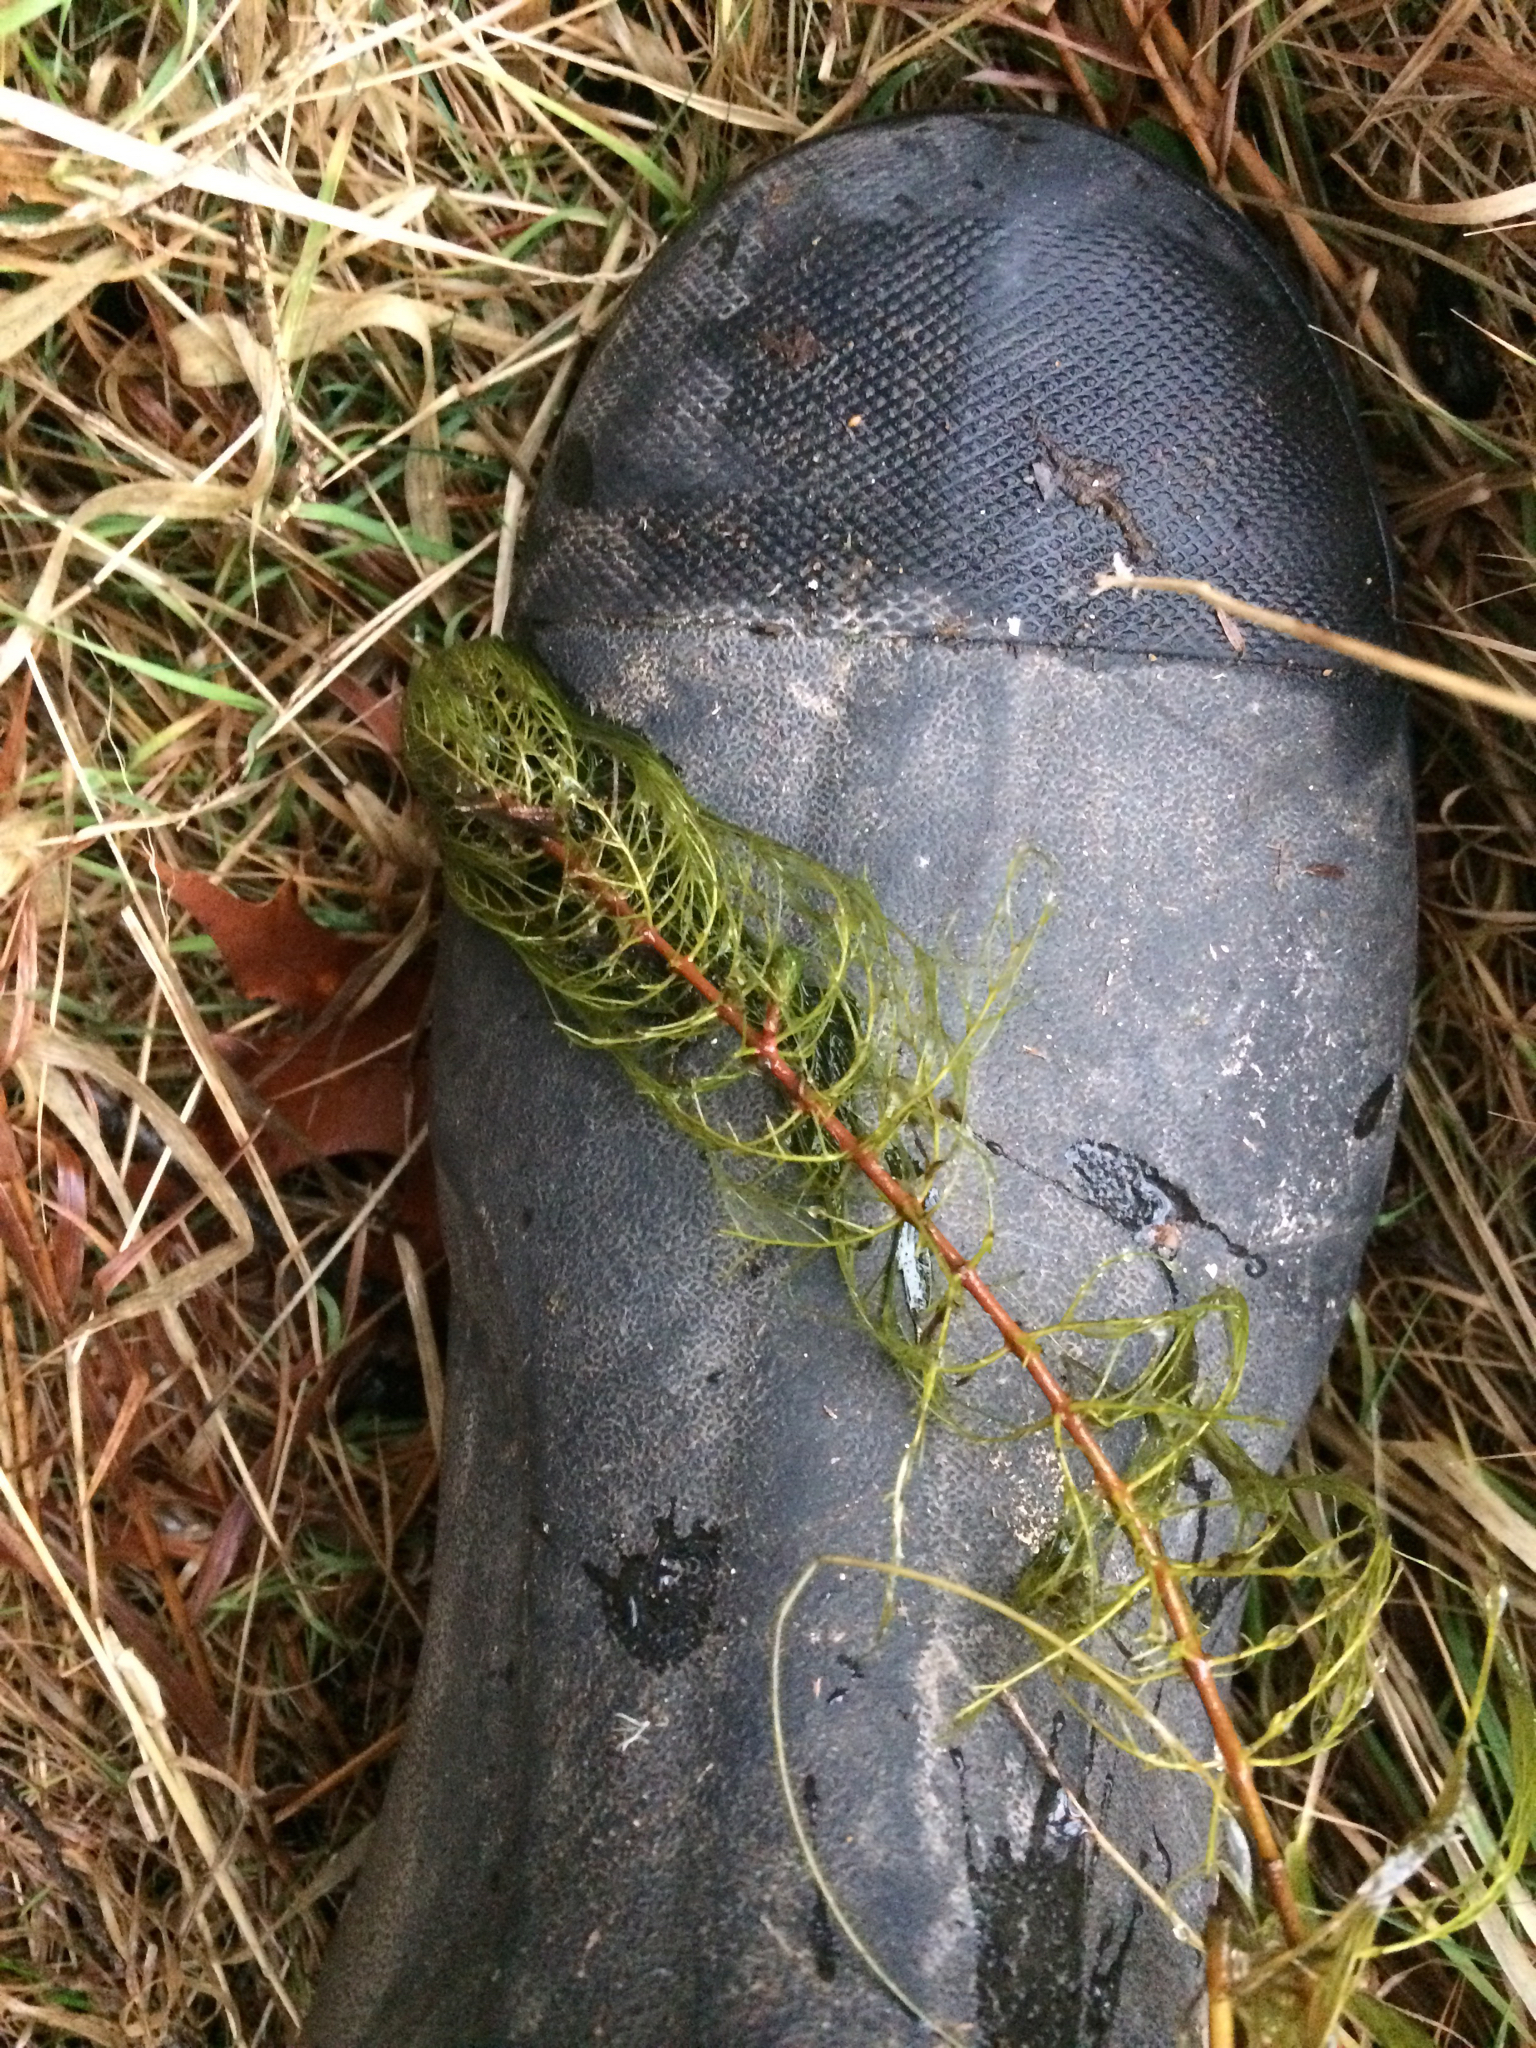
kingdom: Plantae
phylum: Tracheophyta
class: Magnoliopsida
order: Saxifragales
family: Haloragaceae
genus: Myriophyllum
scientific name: Myriophyllum sibiricum
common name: Siberian water-milfoil
